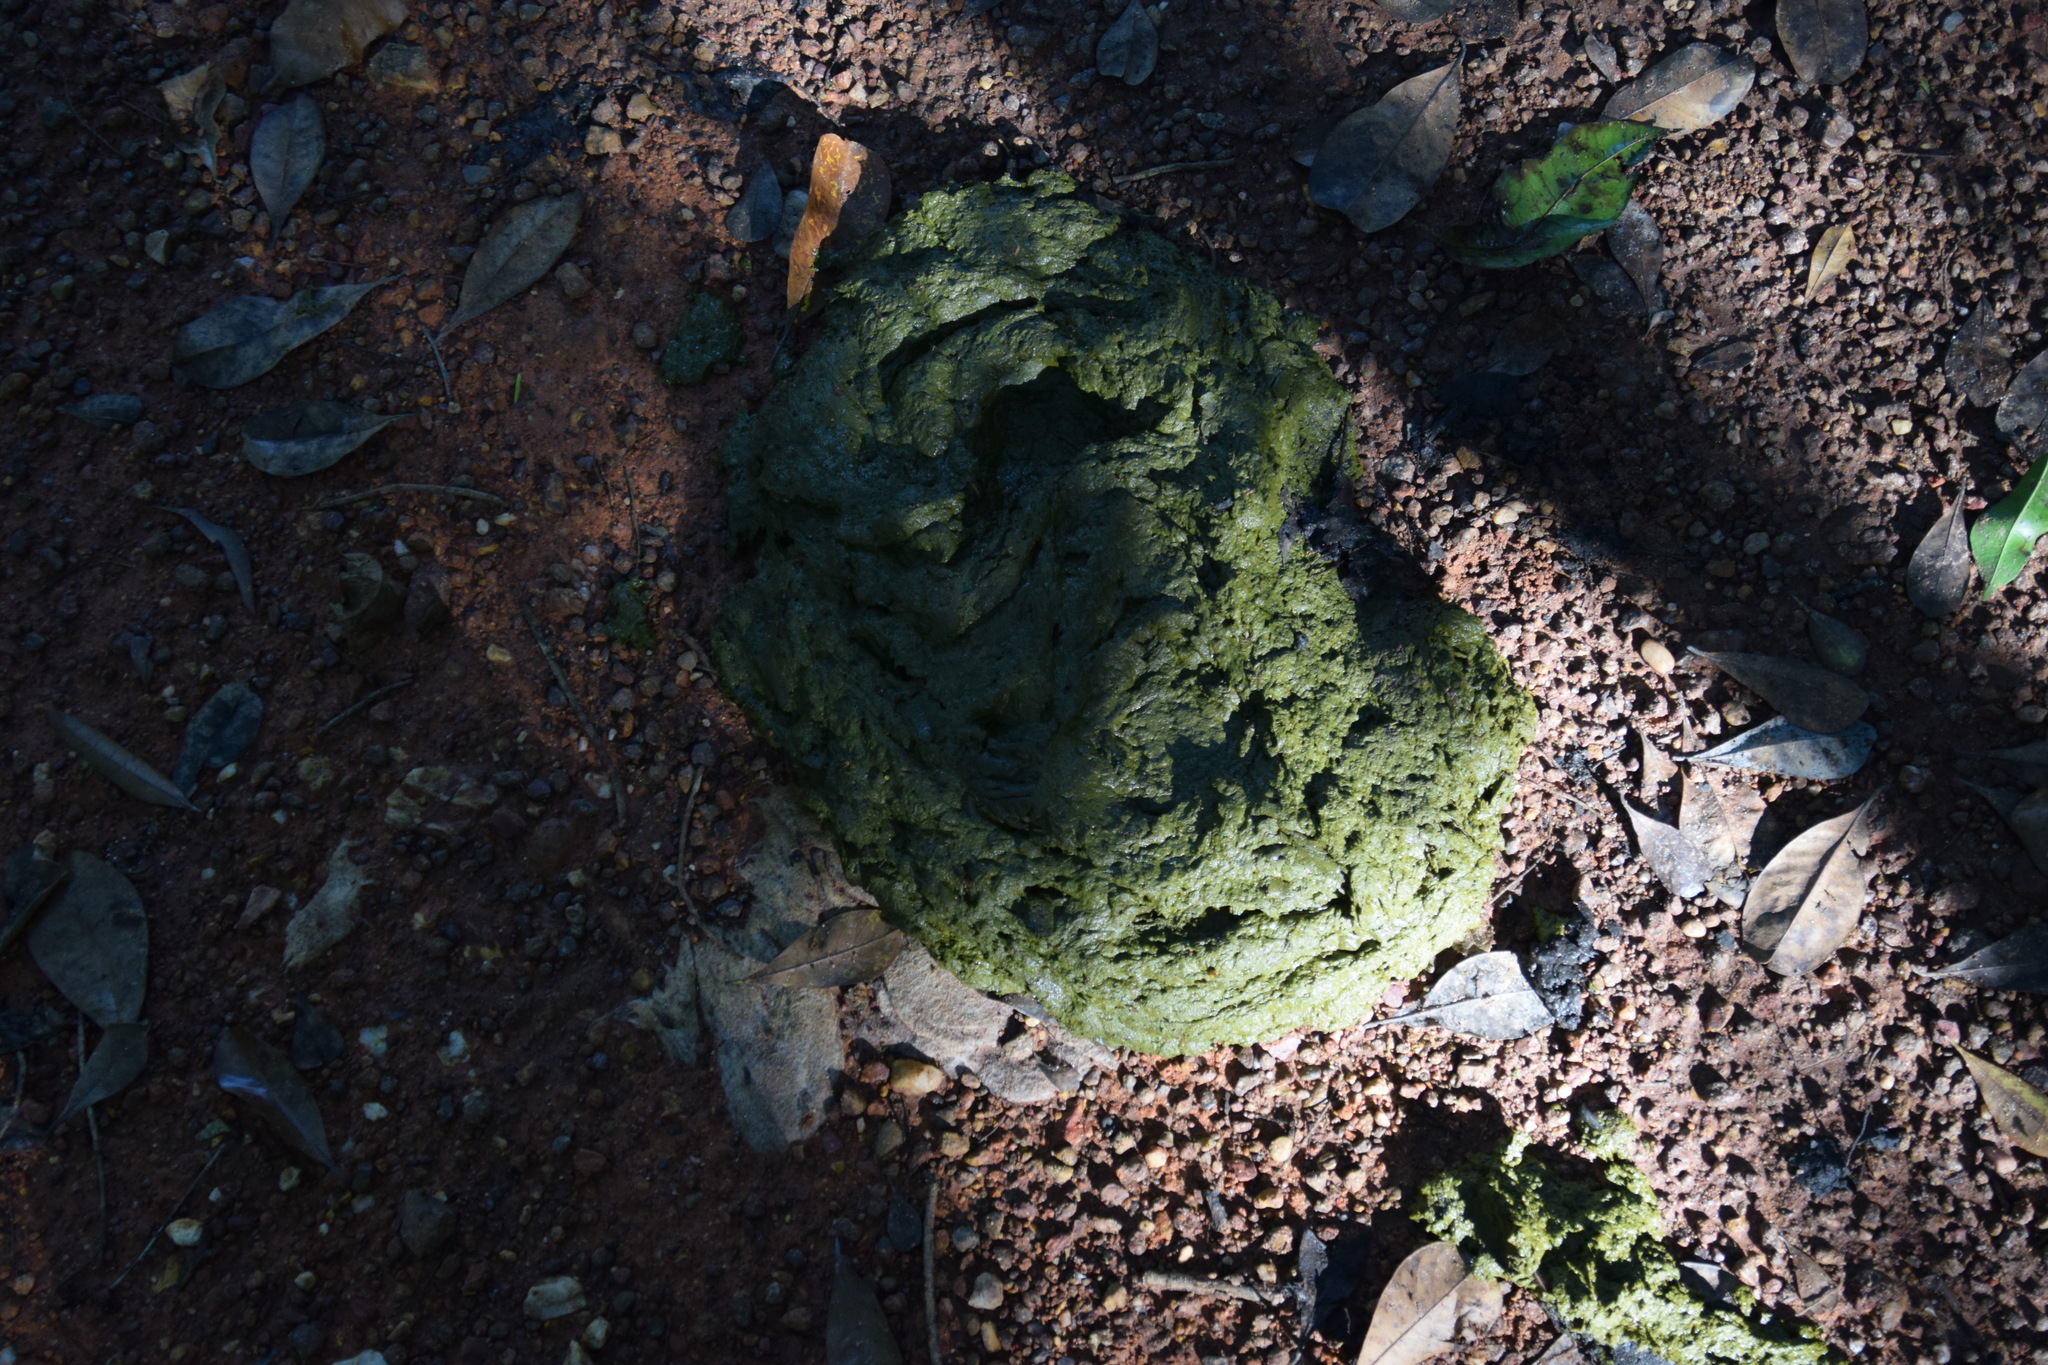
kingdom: Animalia
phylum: Chordata
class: Mammalia
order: Artiodactyla
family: Bovidae
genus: Bubalus
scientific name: Bubalus bubalis
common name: Water buffalo
